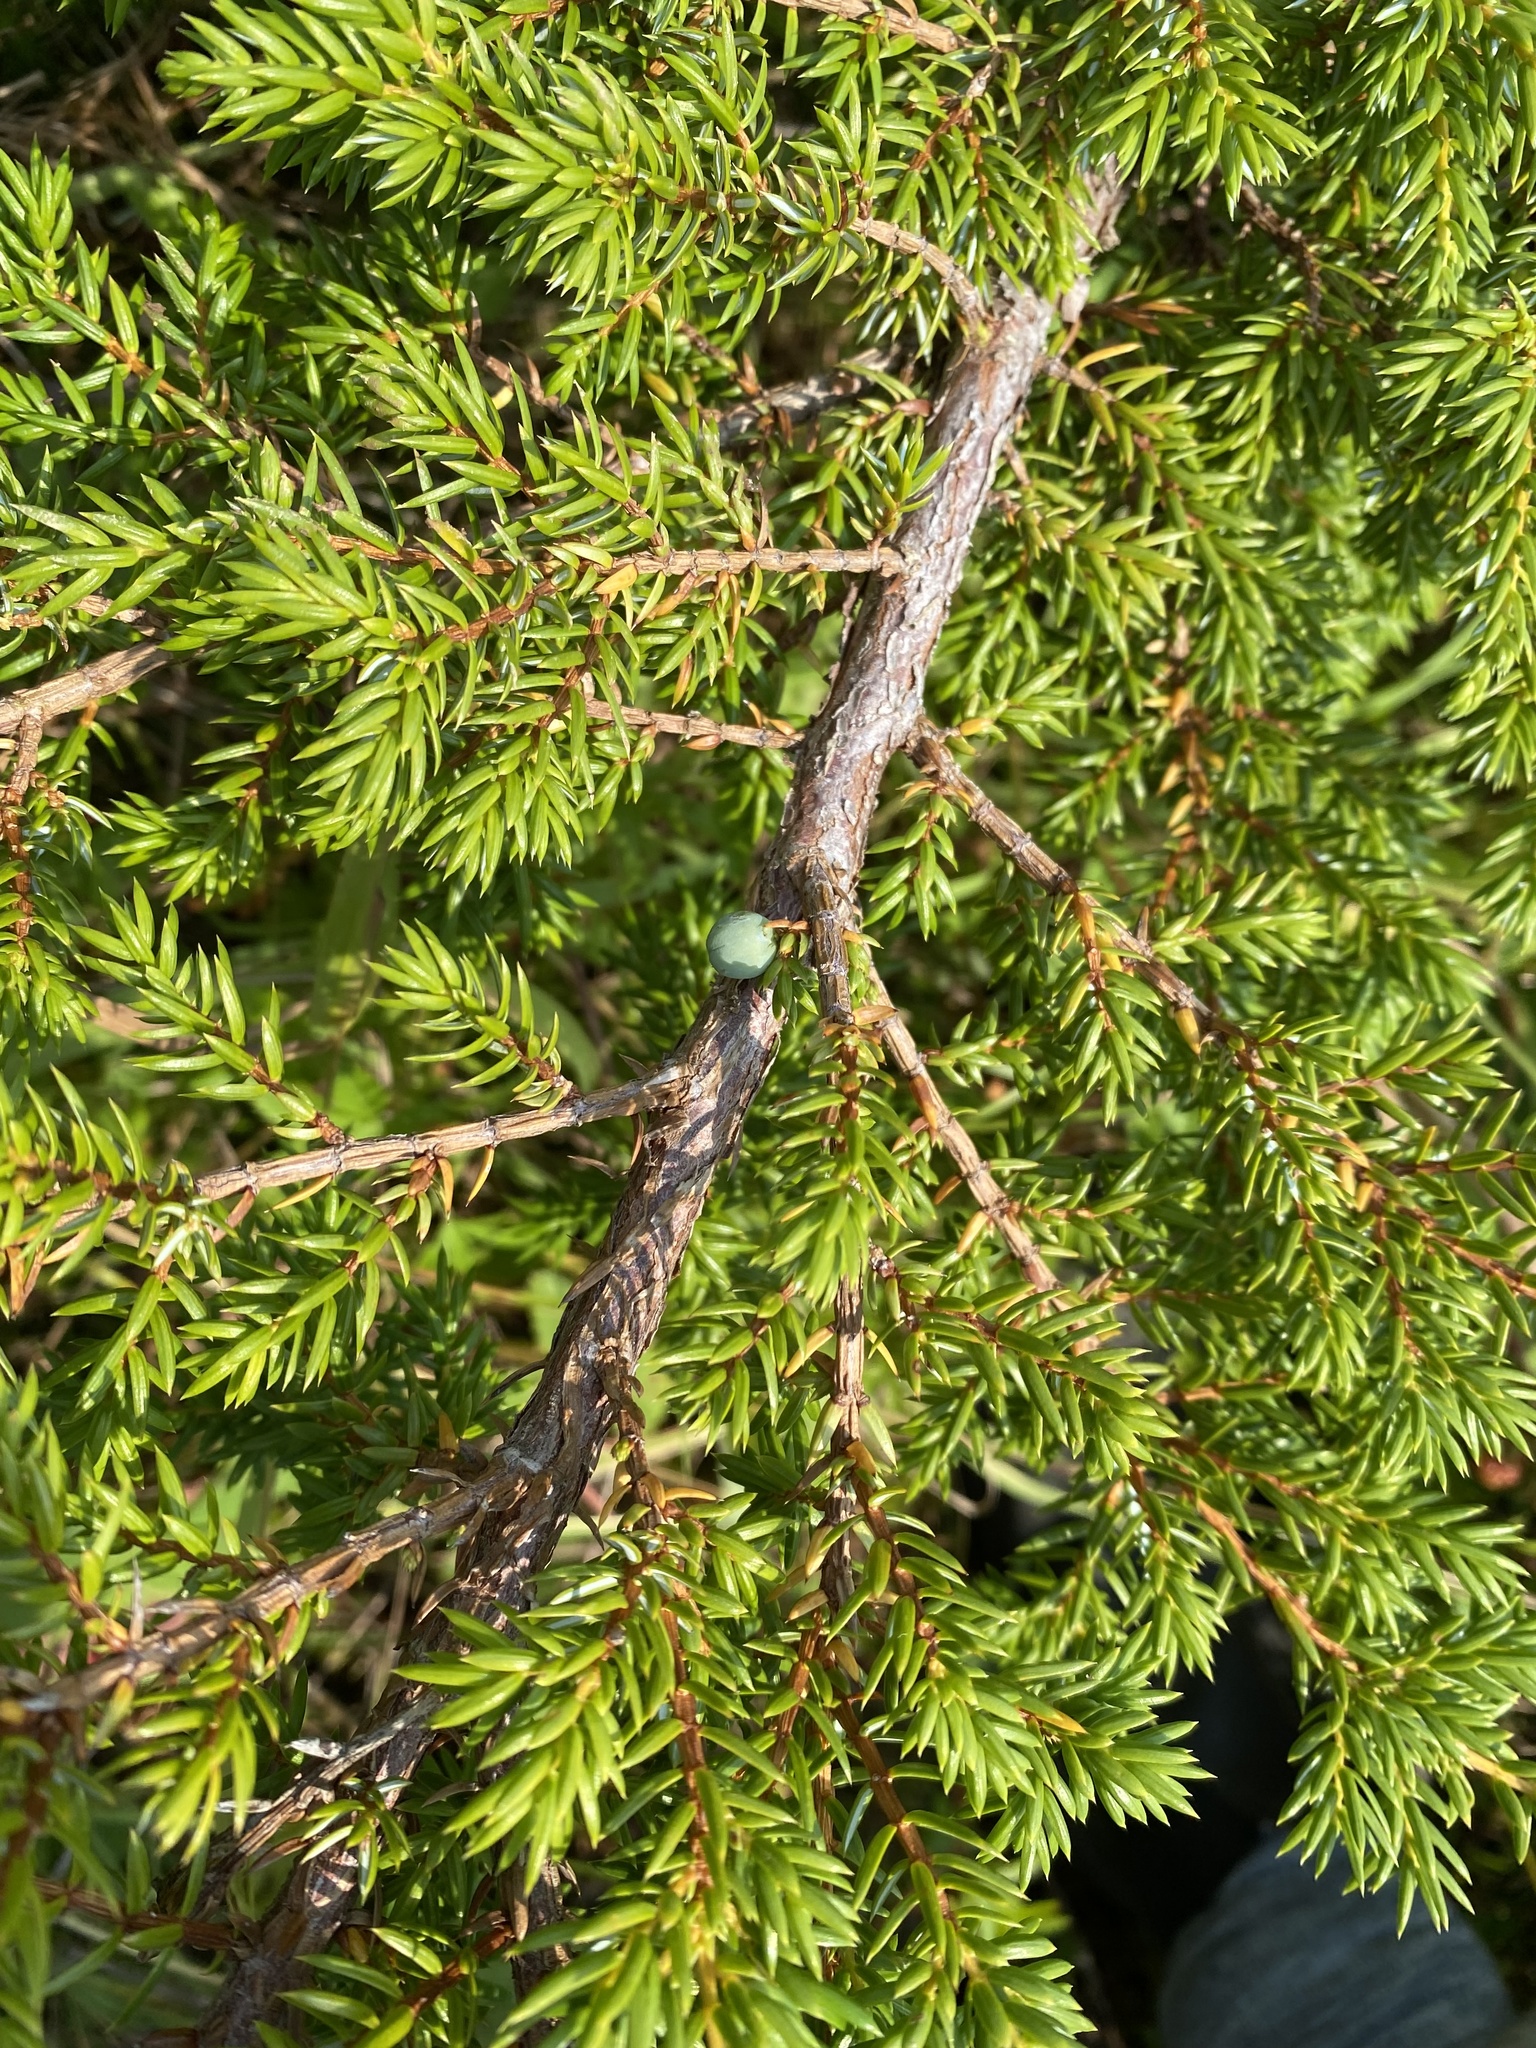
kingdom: Plantae
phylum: Tracheophyta
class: Pinopsida
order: Pinales
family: Cupressaceae
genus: Juniperus
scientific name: Juniperus communis
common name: Common juniper
